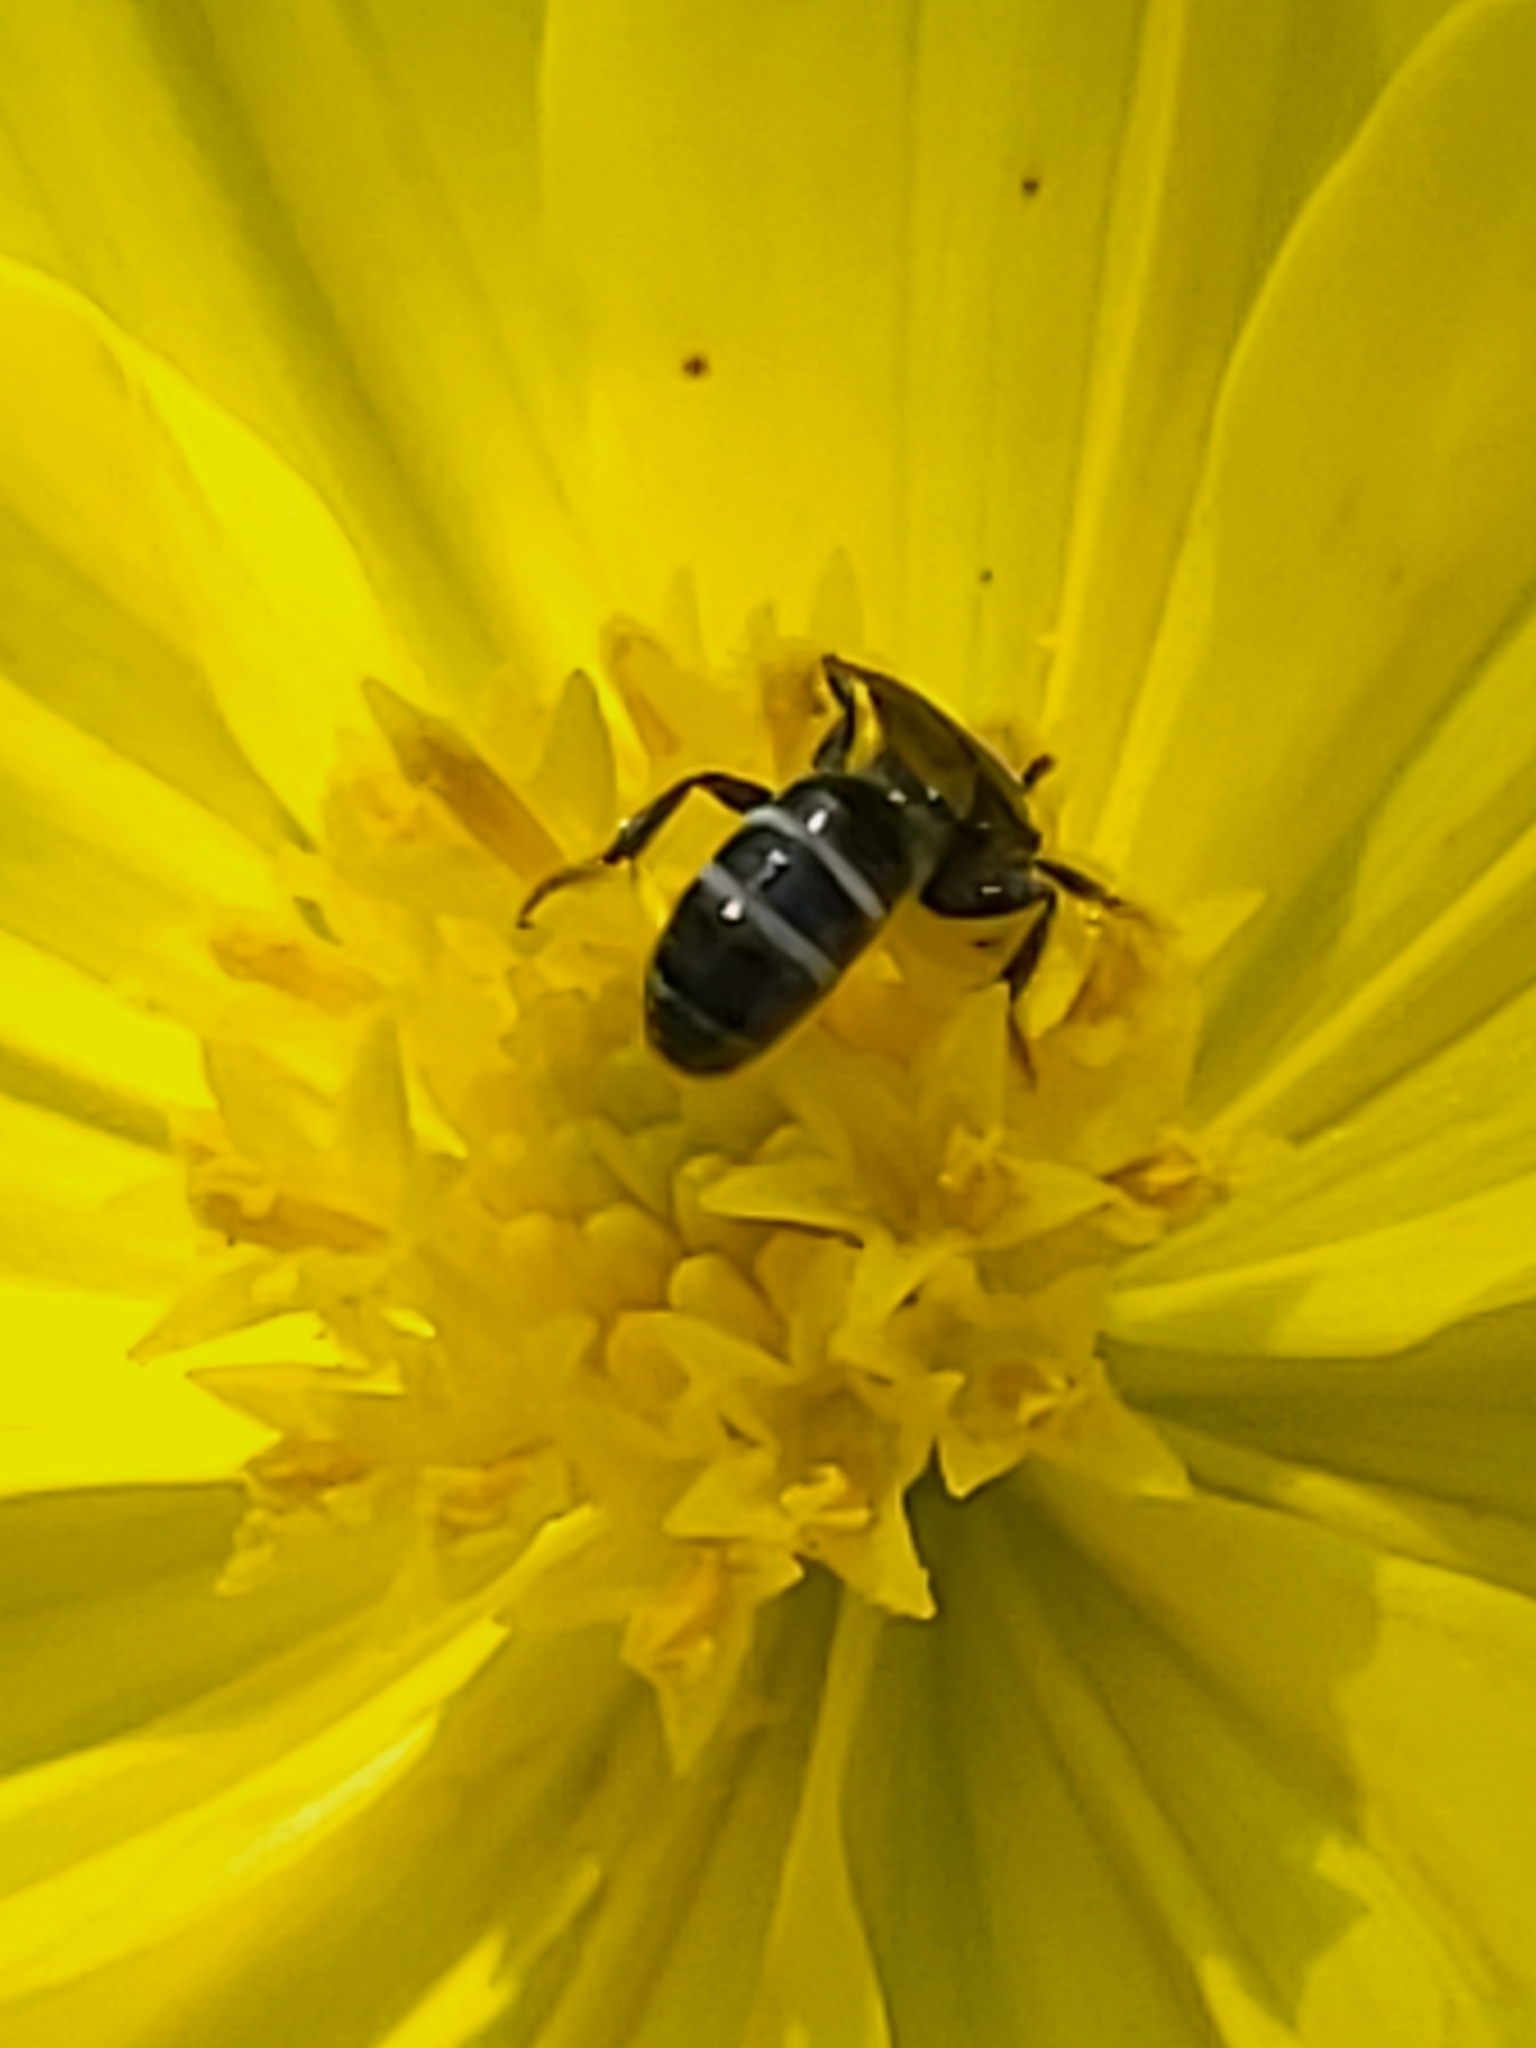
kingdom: Animalia
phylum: Arthropoda
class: Insecta
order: Hymenoptera
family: Halictidae
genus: Lasioglossum
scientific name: Lasioglossum albescens
